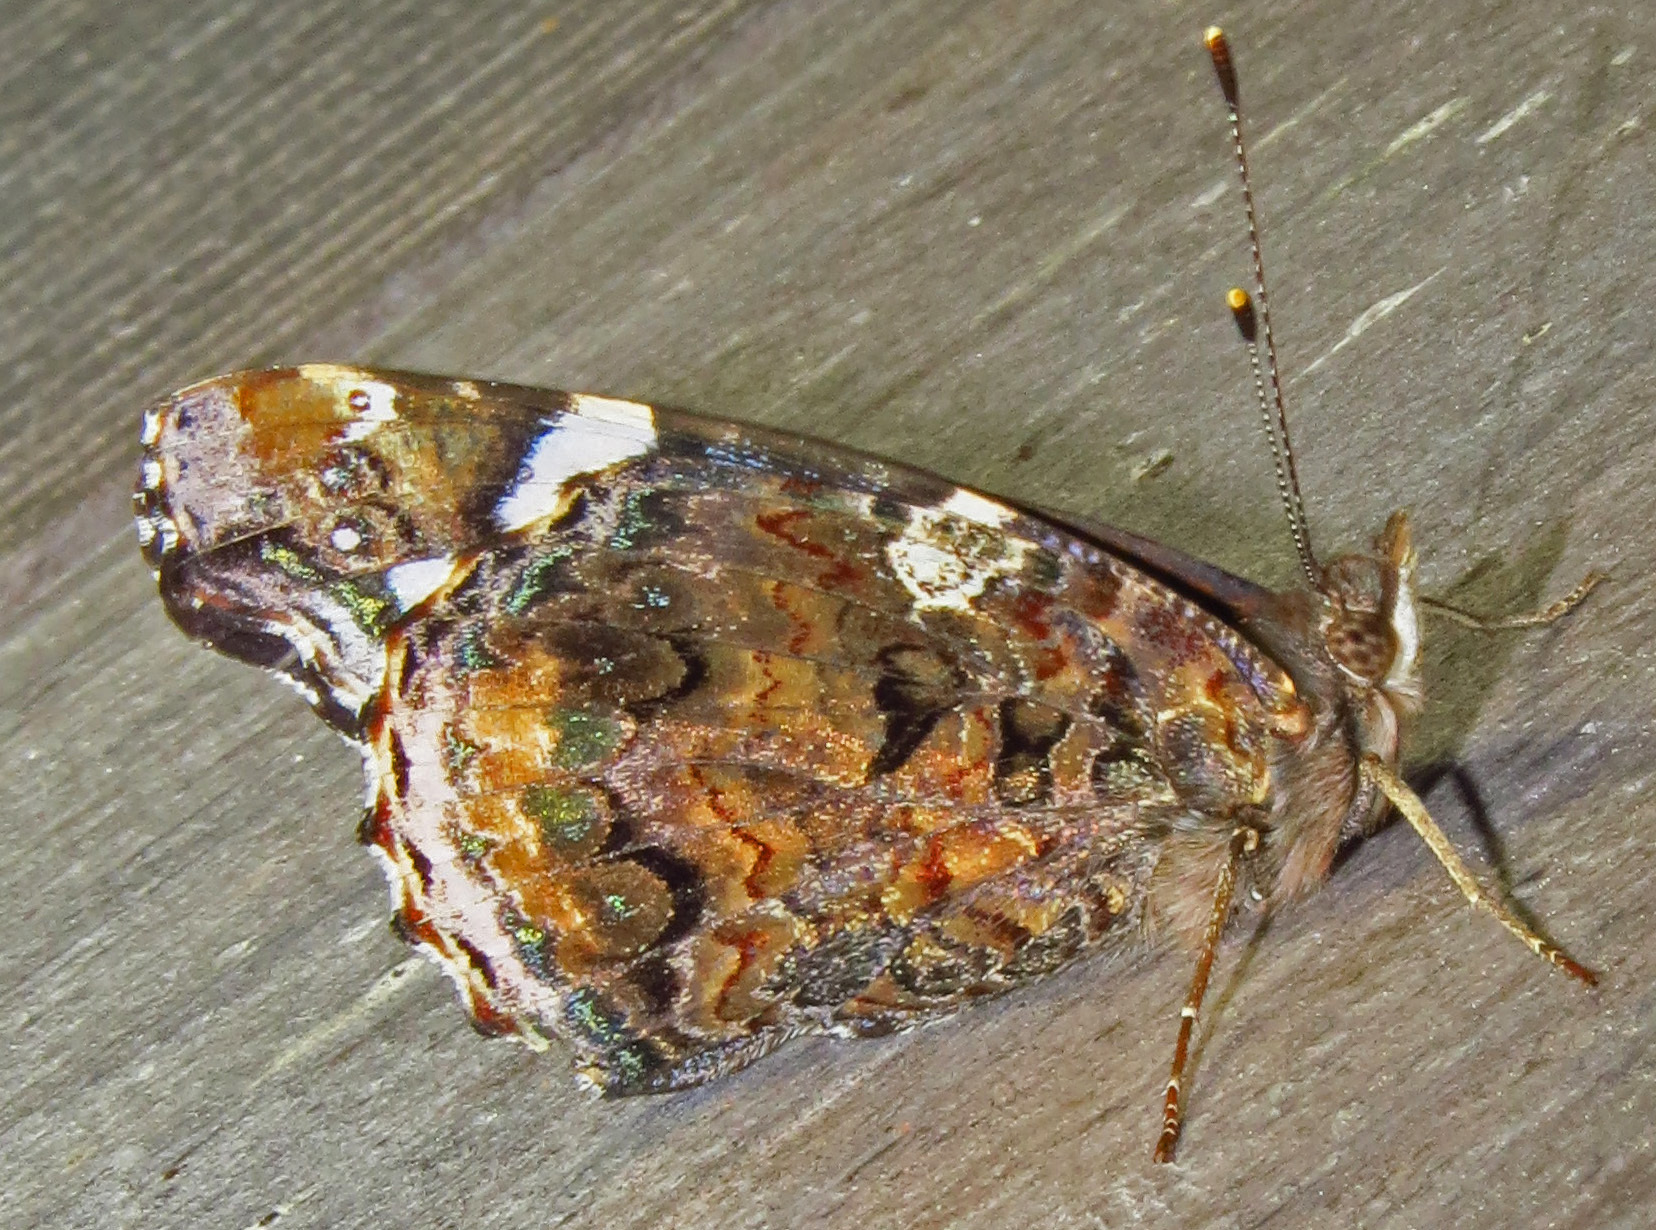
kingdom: Animalia
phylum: Arthropoda
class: Insecta
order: Lepidoptera
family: Nymphalidae
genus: Vanessa
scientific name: Vanessa atalanta
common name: Red admiral
